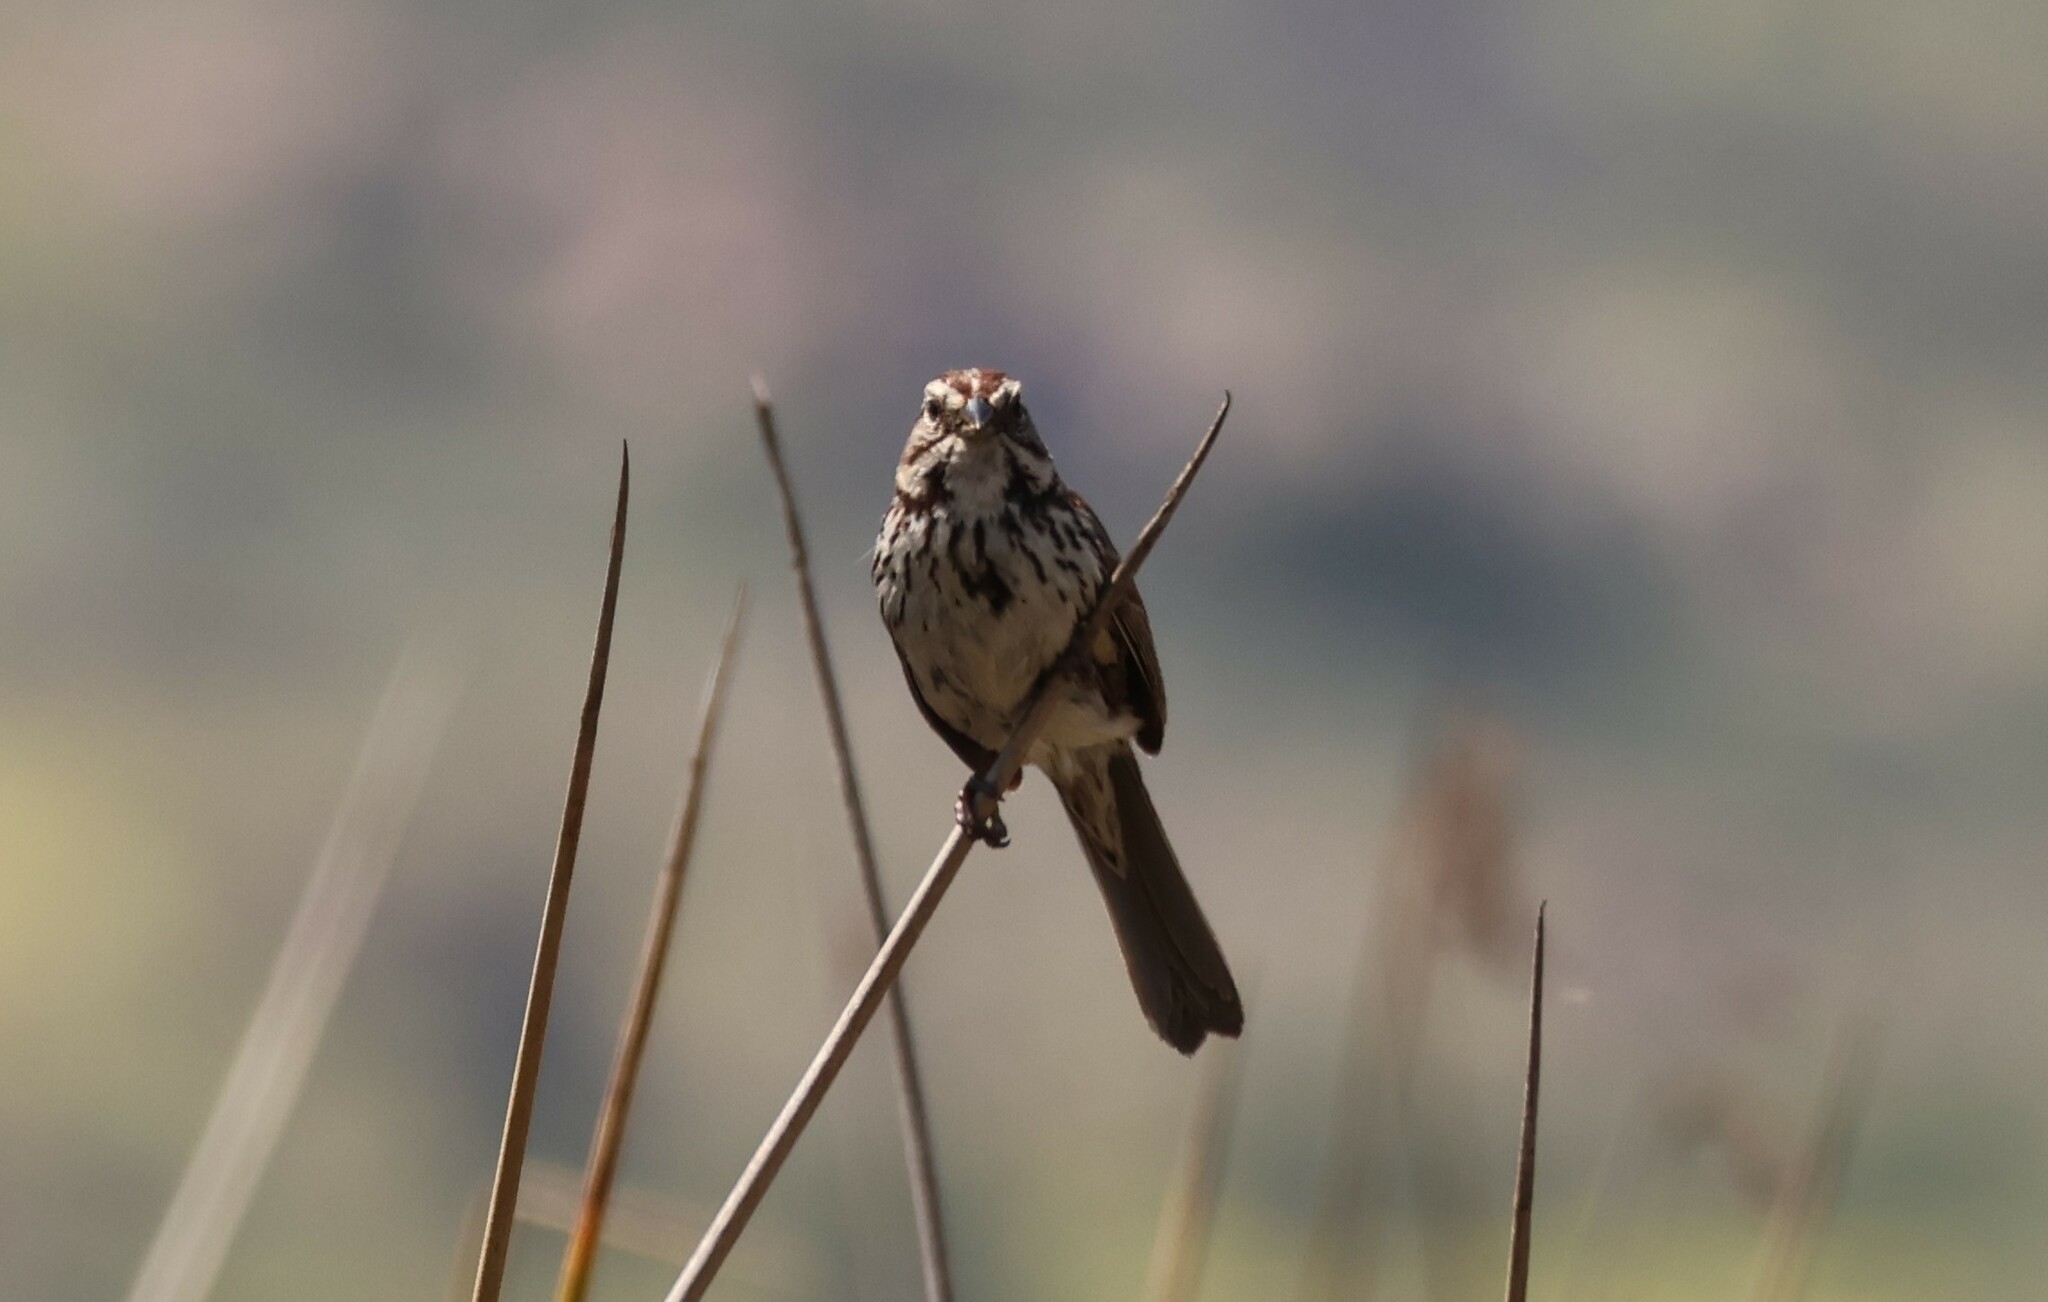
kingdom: Animalia
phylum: Chordata
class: Aves
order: Passeriformes
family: Passerellidae
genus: Melospiza
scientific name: Melospiza melodia
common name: Song sparrow
